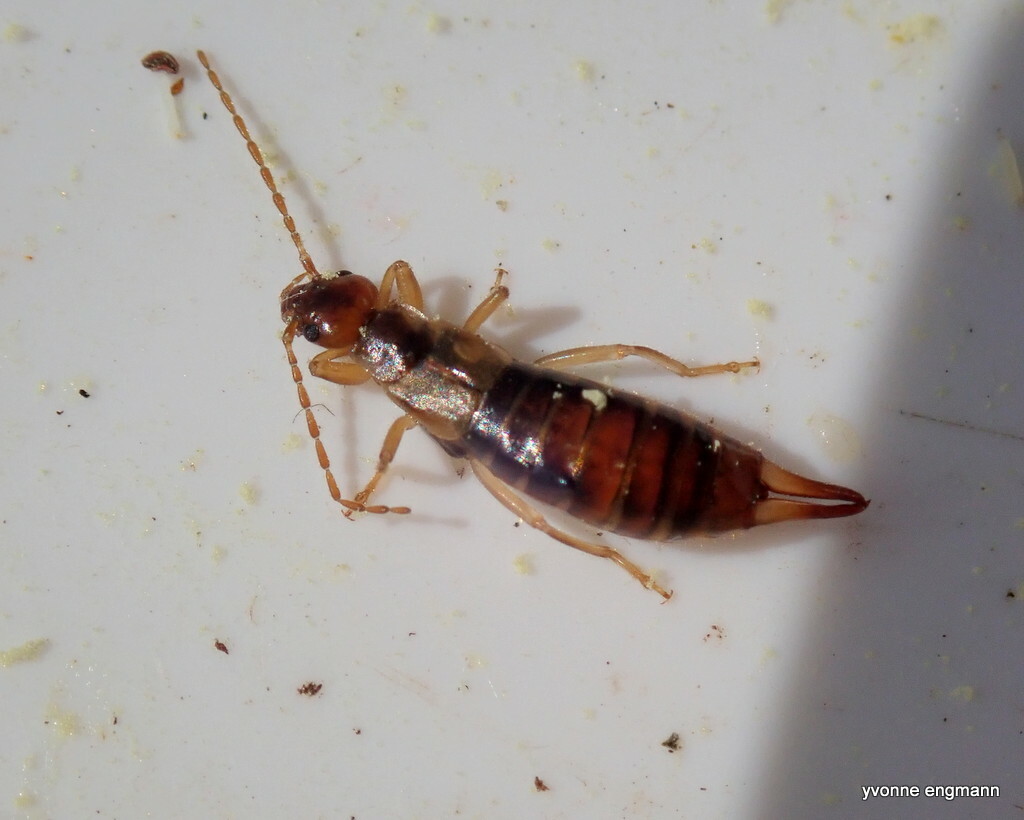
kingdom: Animalia
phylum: Arthropoda
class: Insecta
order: Dermaptera
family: Forficulidae
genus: Apterygida
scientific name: Apterygida albipennis
